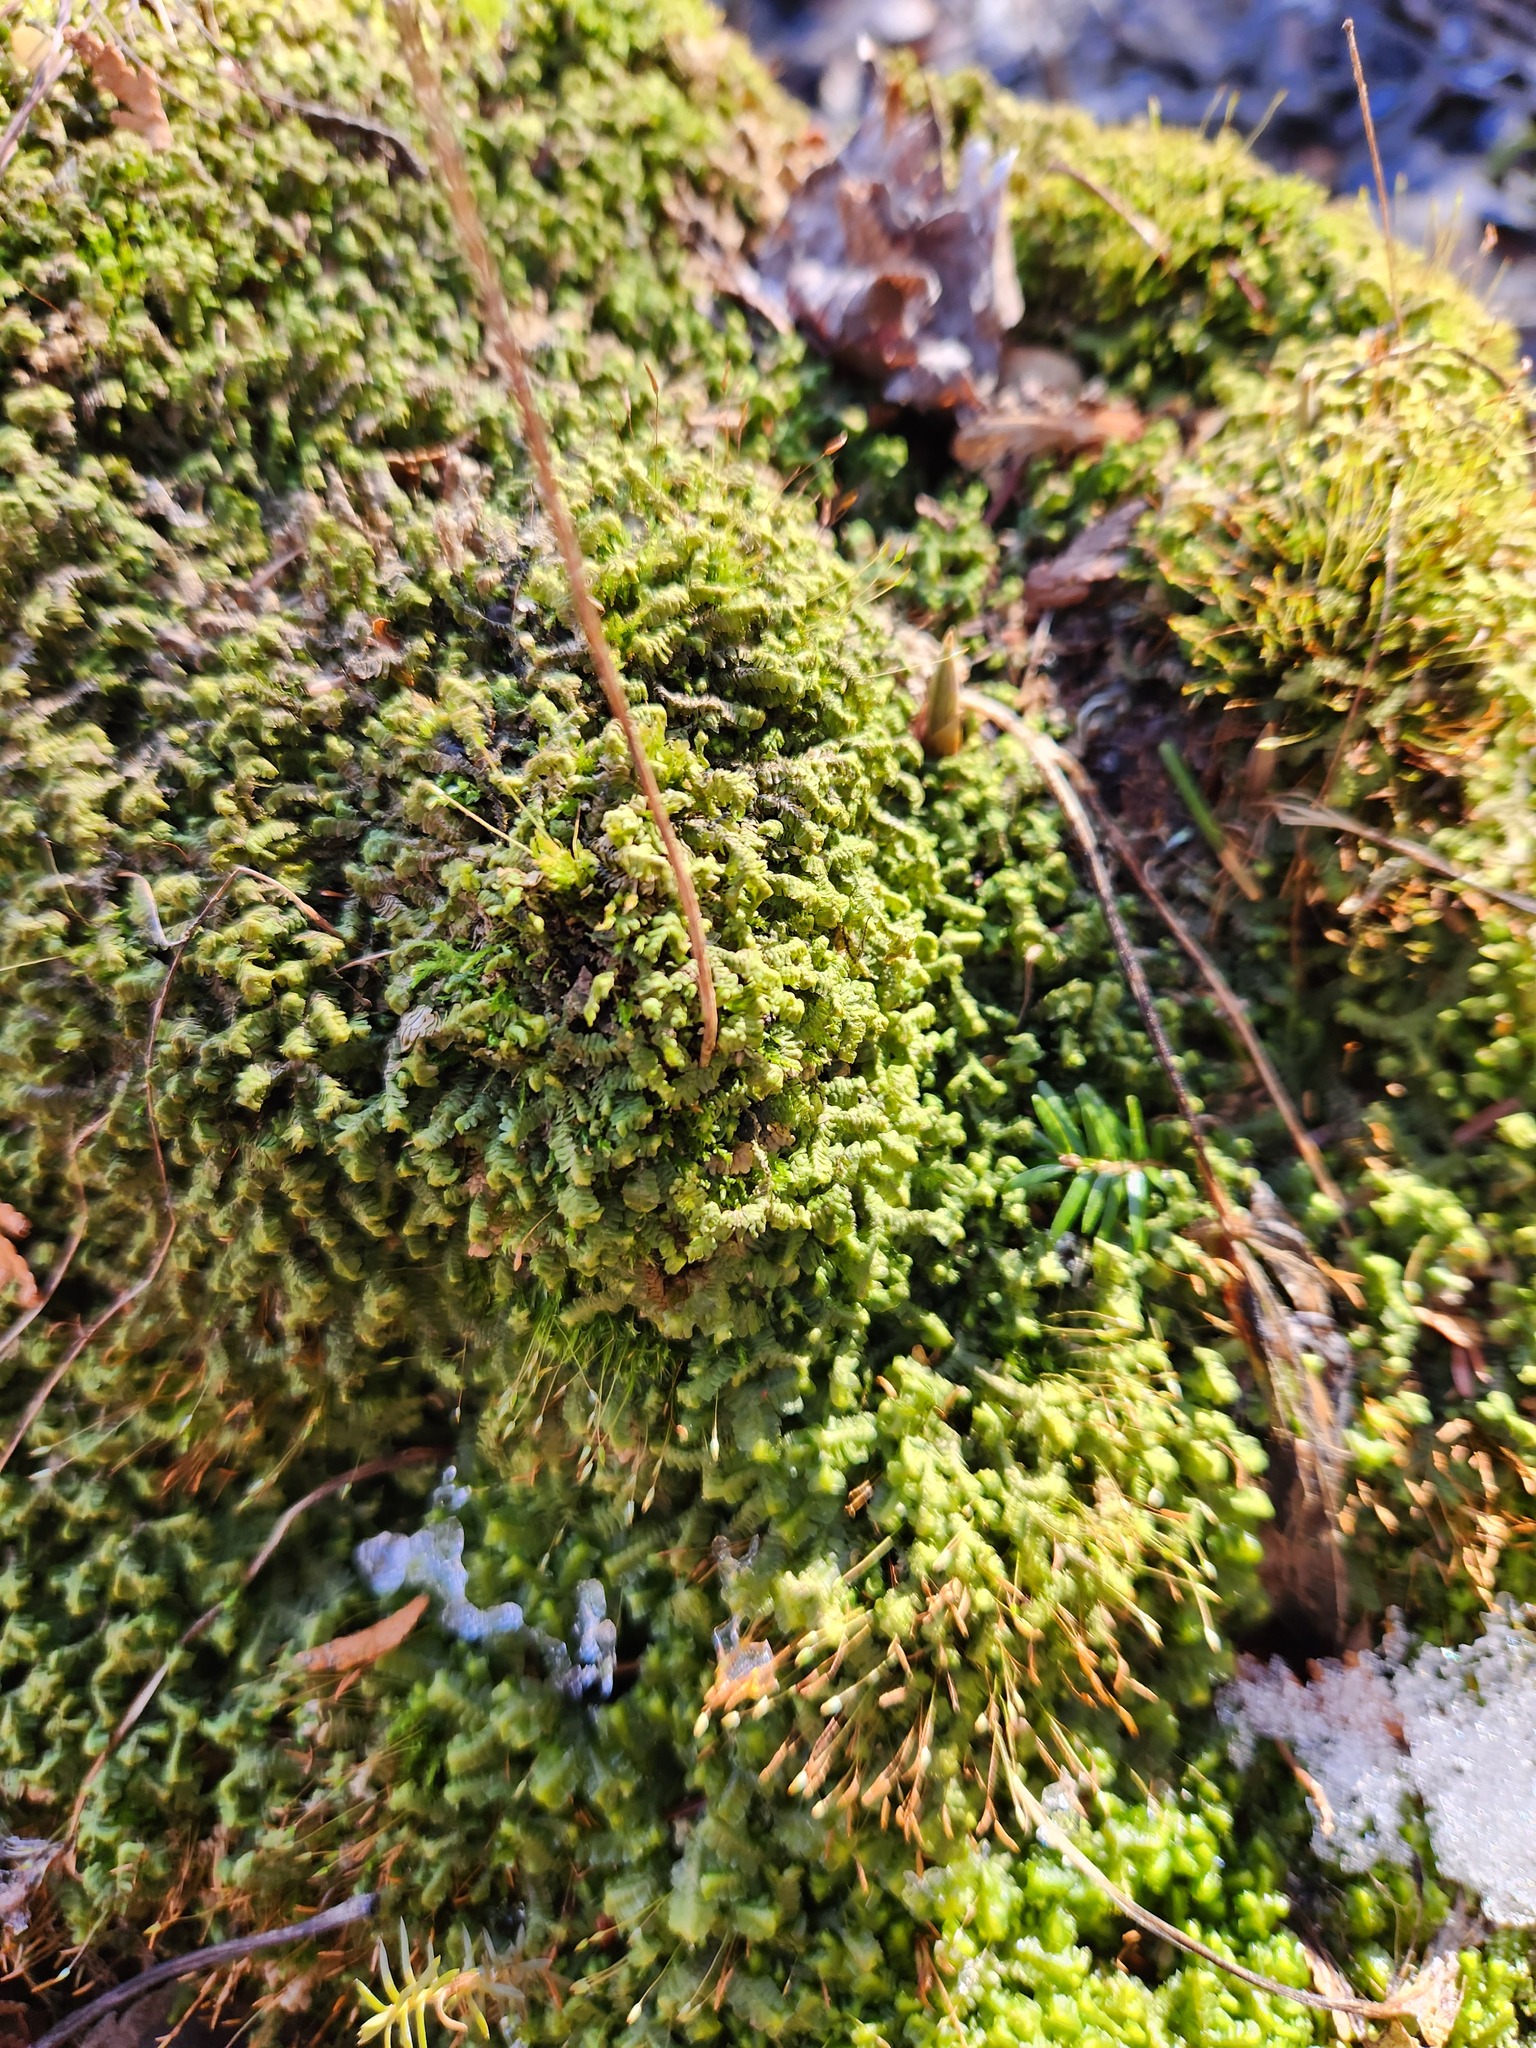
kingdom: Plantae
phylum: Marchantiophyta
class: Jungermanniopsida
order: Jungermanniales
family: Lepidoziaceae
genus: Bazzania
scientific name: Bazzania trilobata
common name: Three-lobed whipwort
